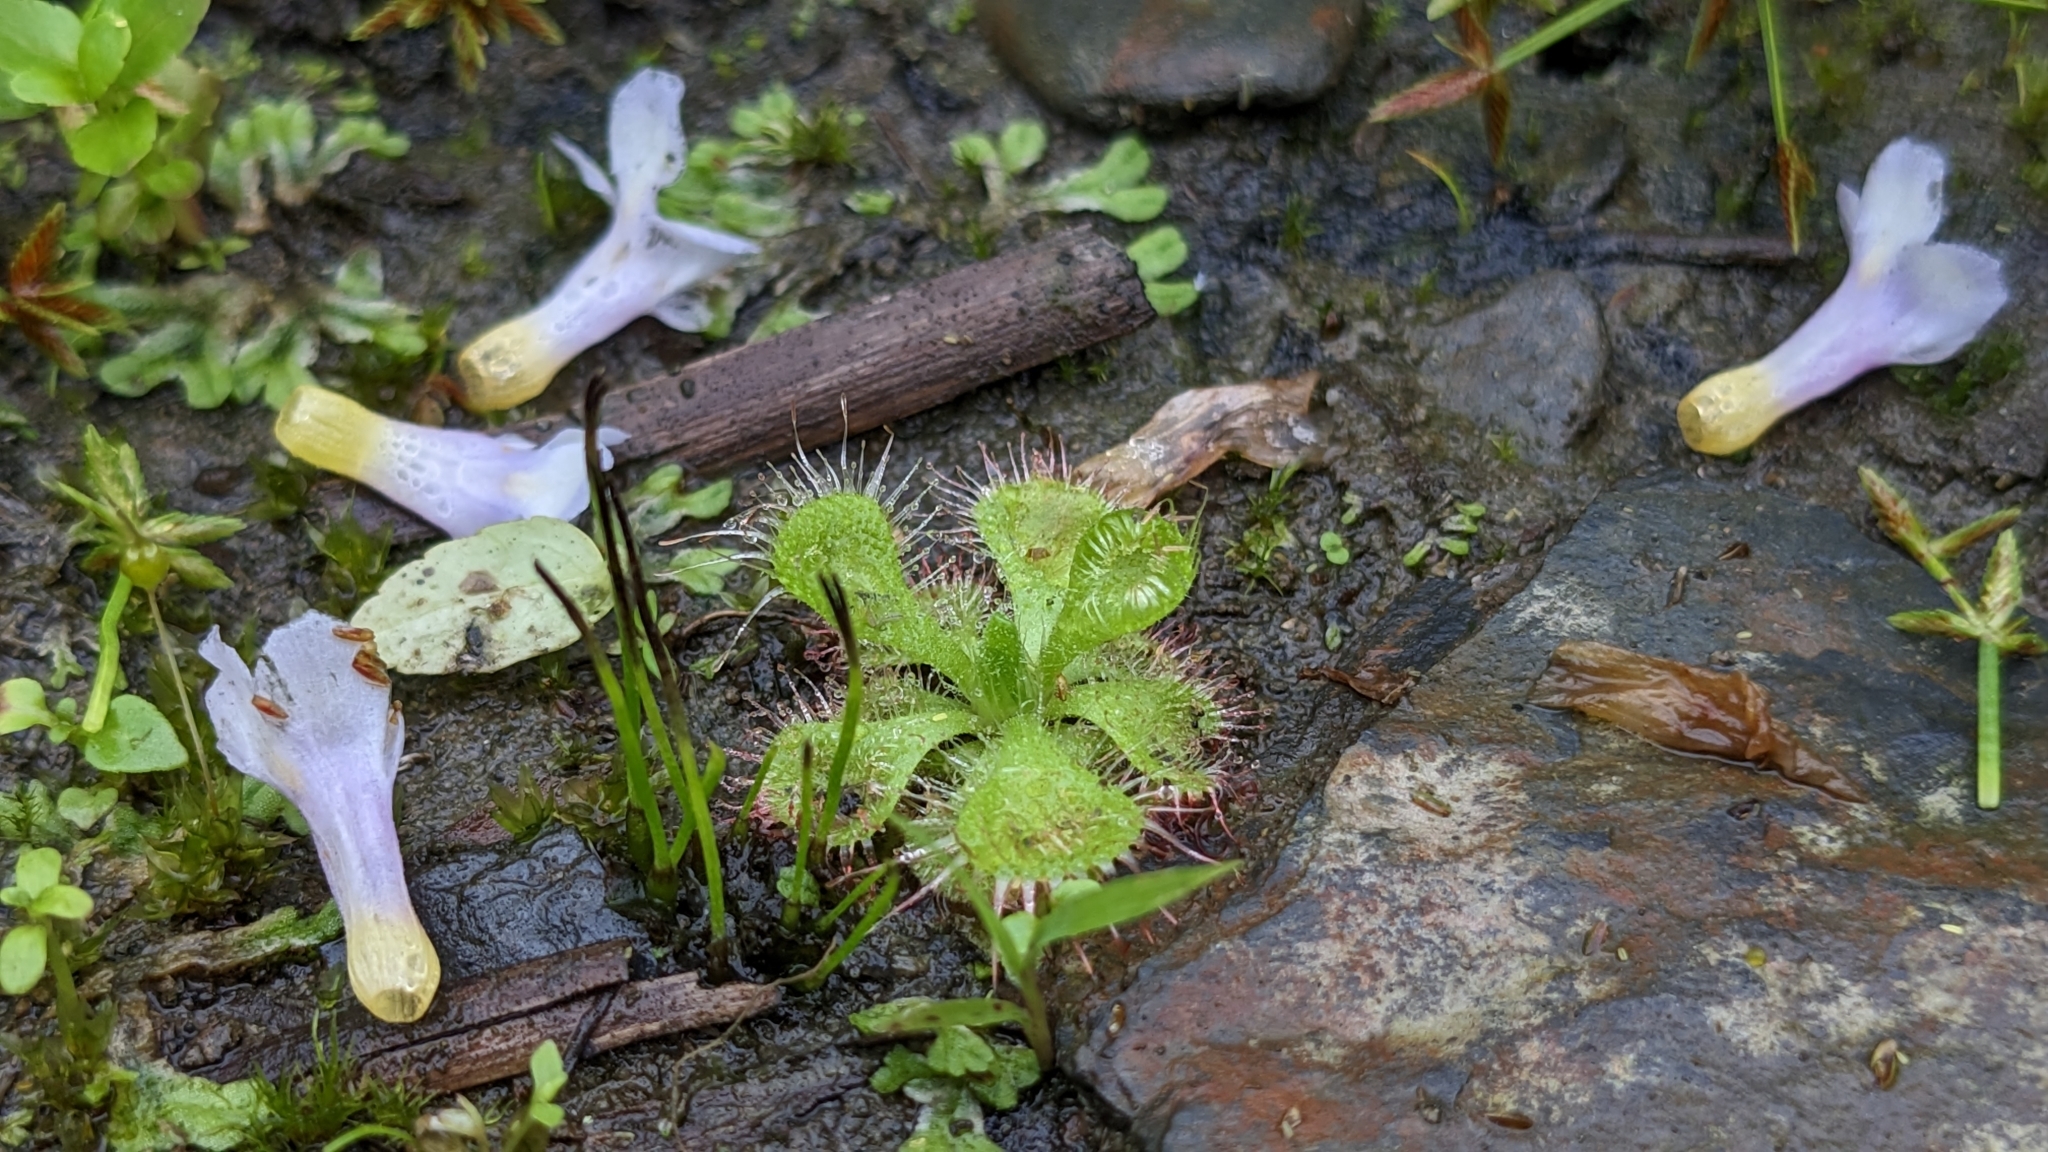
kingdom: Plantae
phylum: Tracheophyta
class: Magnoliopsida
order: Caryophyllales
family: Droseraceae
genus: Drosera
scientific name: Drosera spatulata
